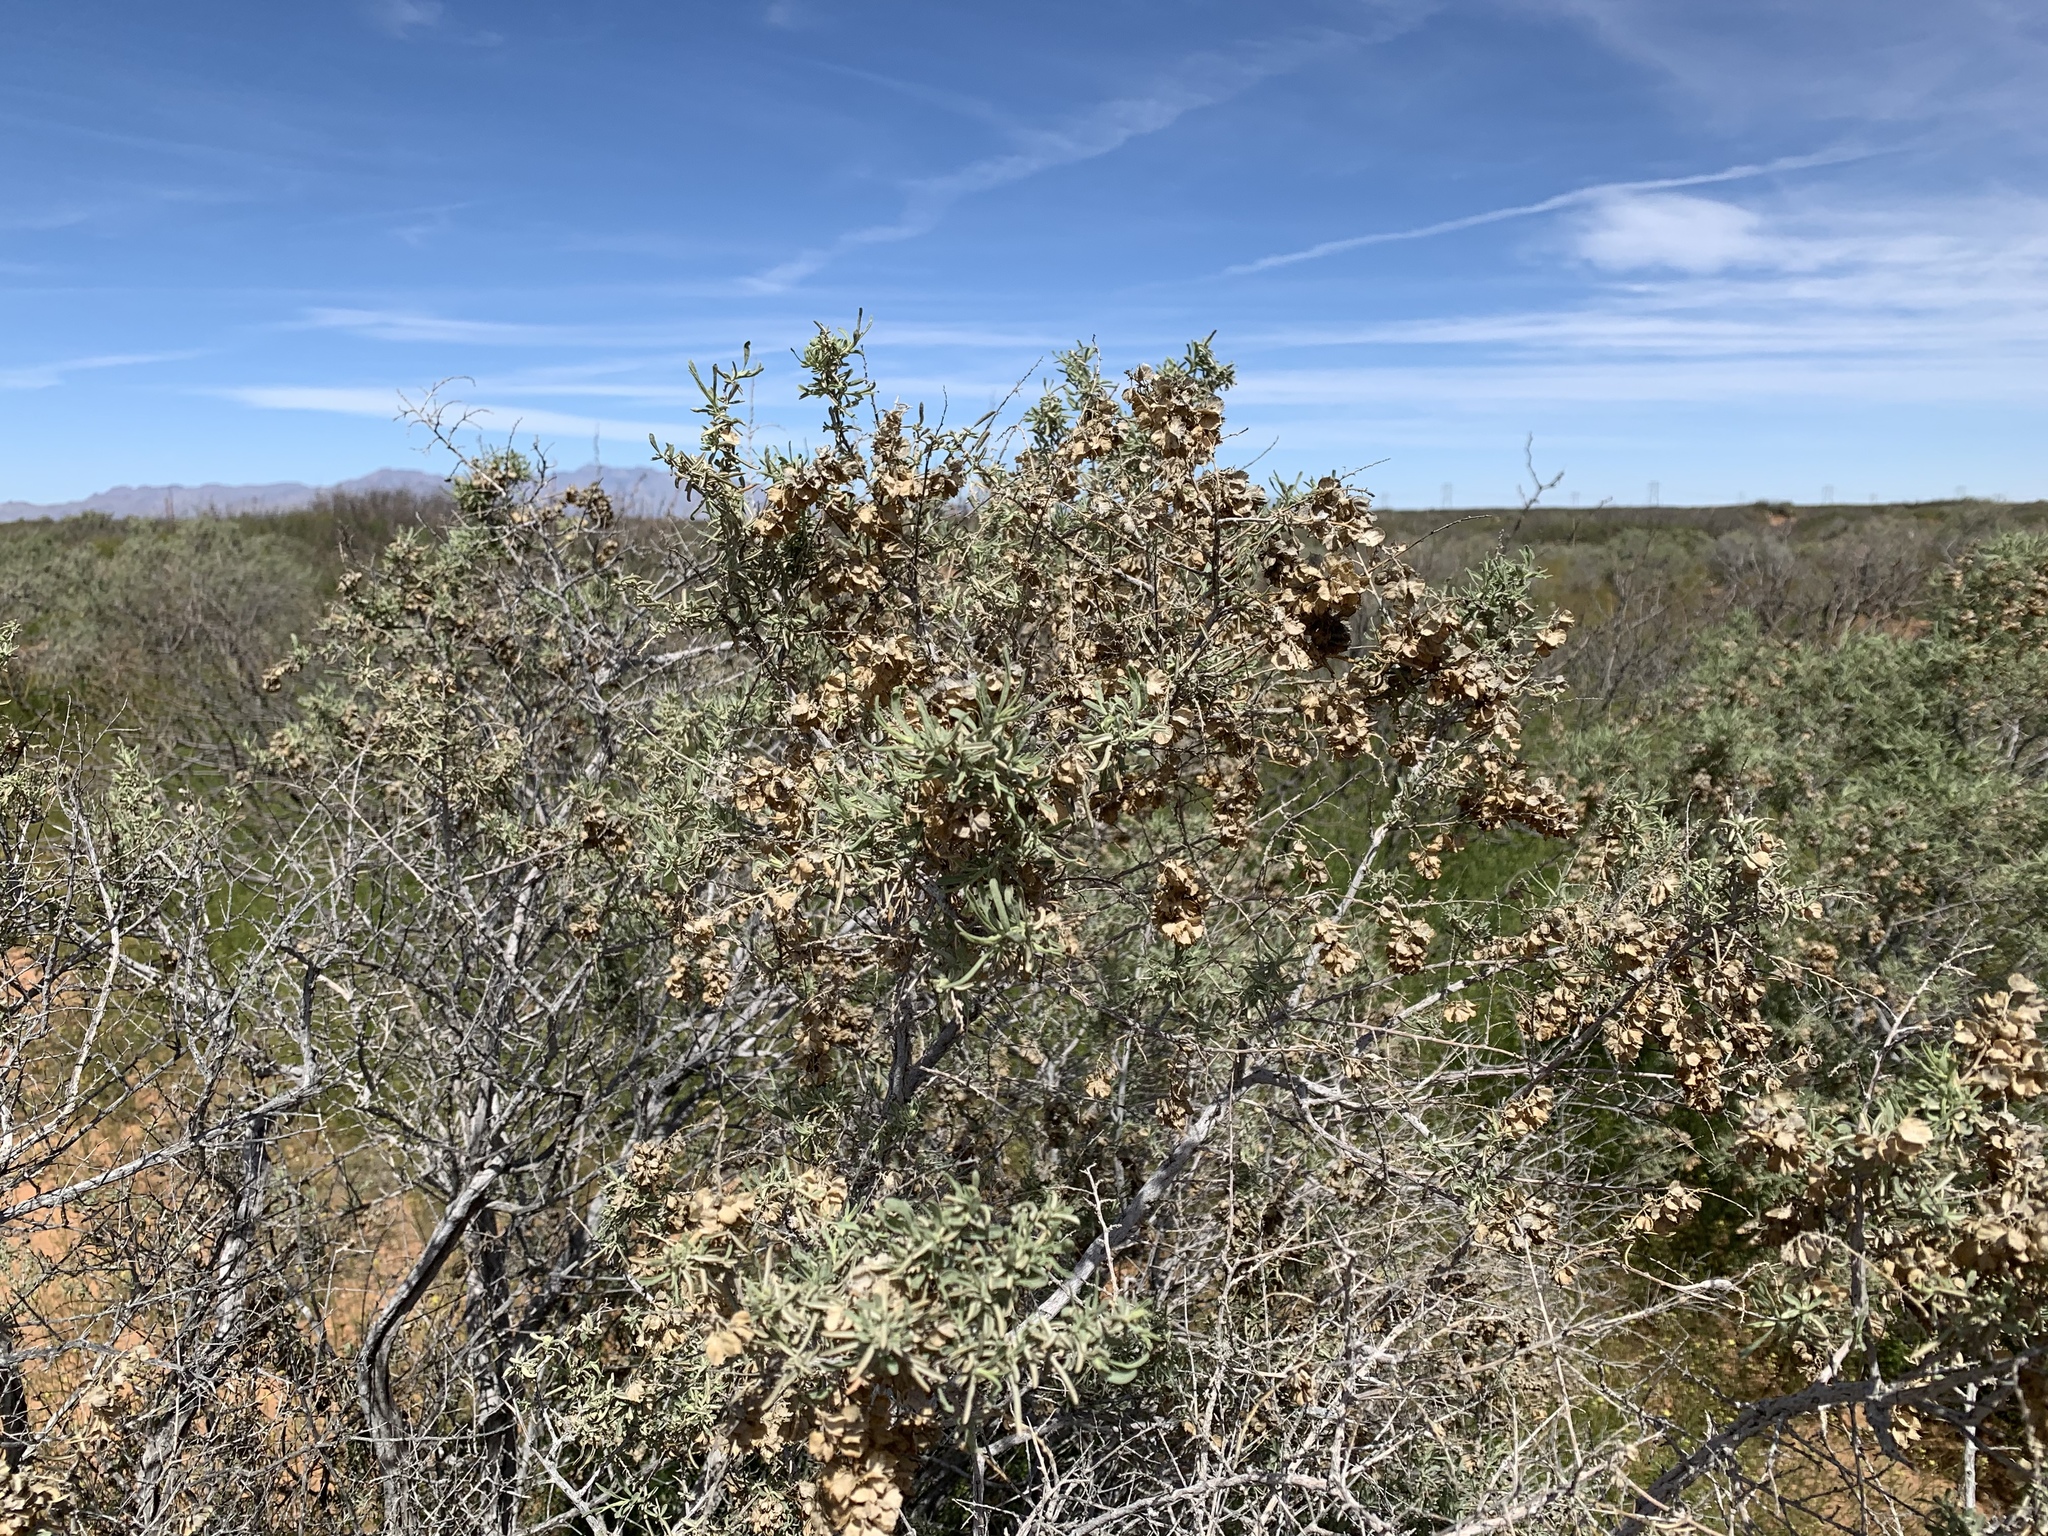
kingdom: Plantae
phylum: Tracheophyta
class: Magnoliopsida
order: Caryophyllales
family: Amaranthaceae
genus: Atriplex
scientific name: Atriplex canescens
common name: Four-wing saltbush
